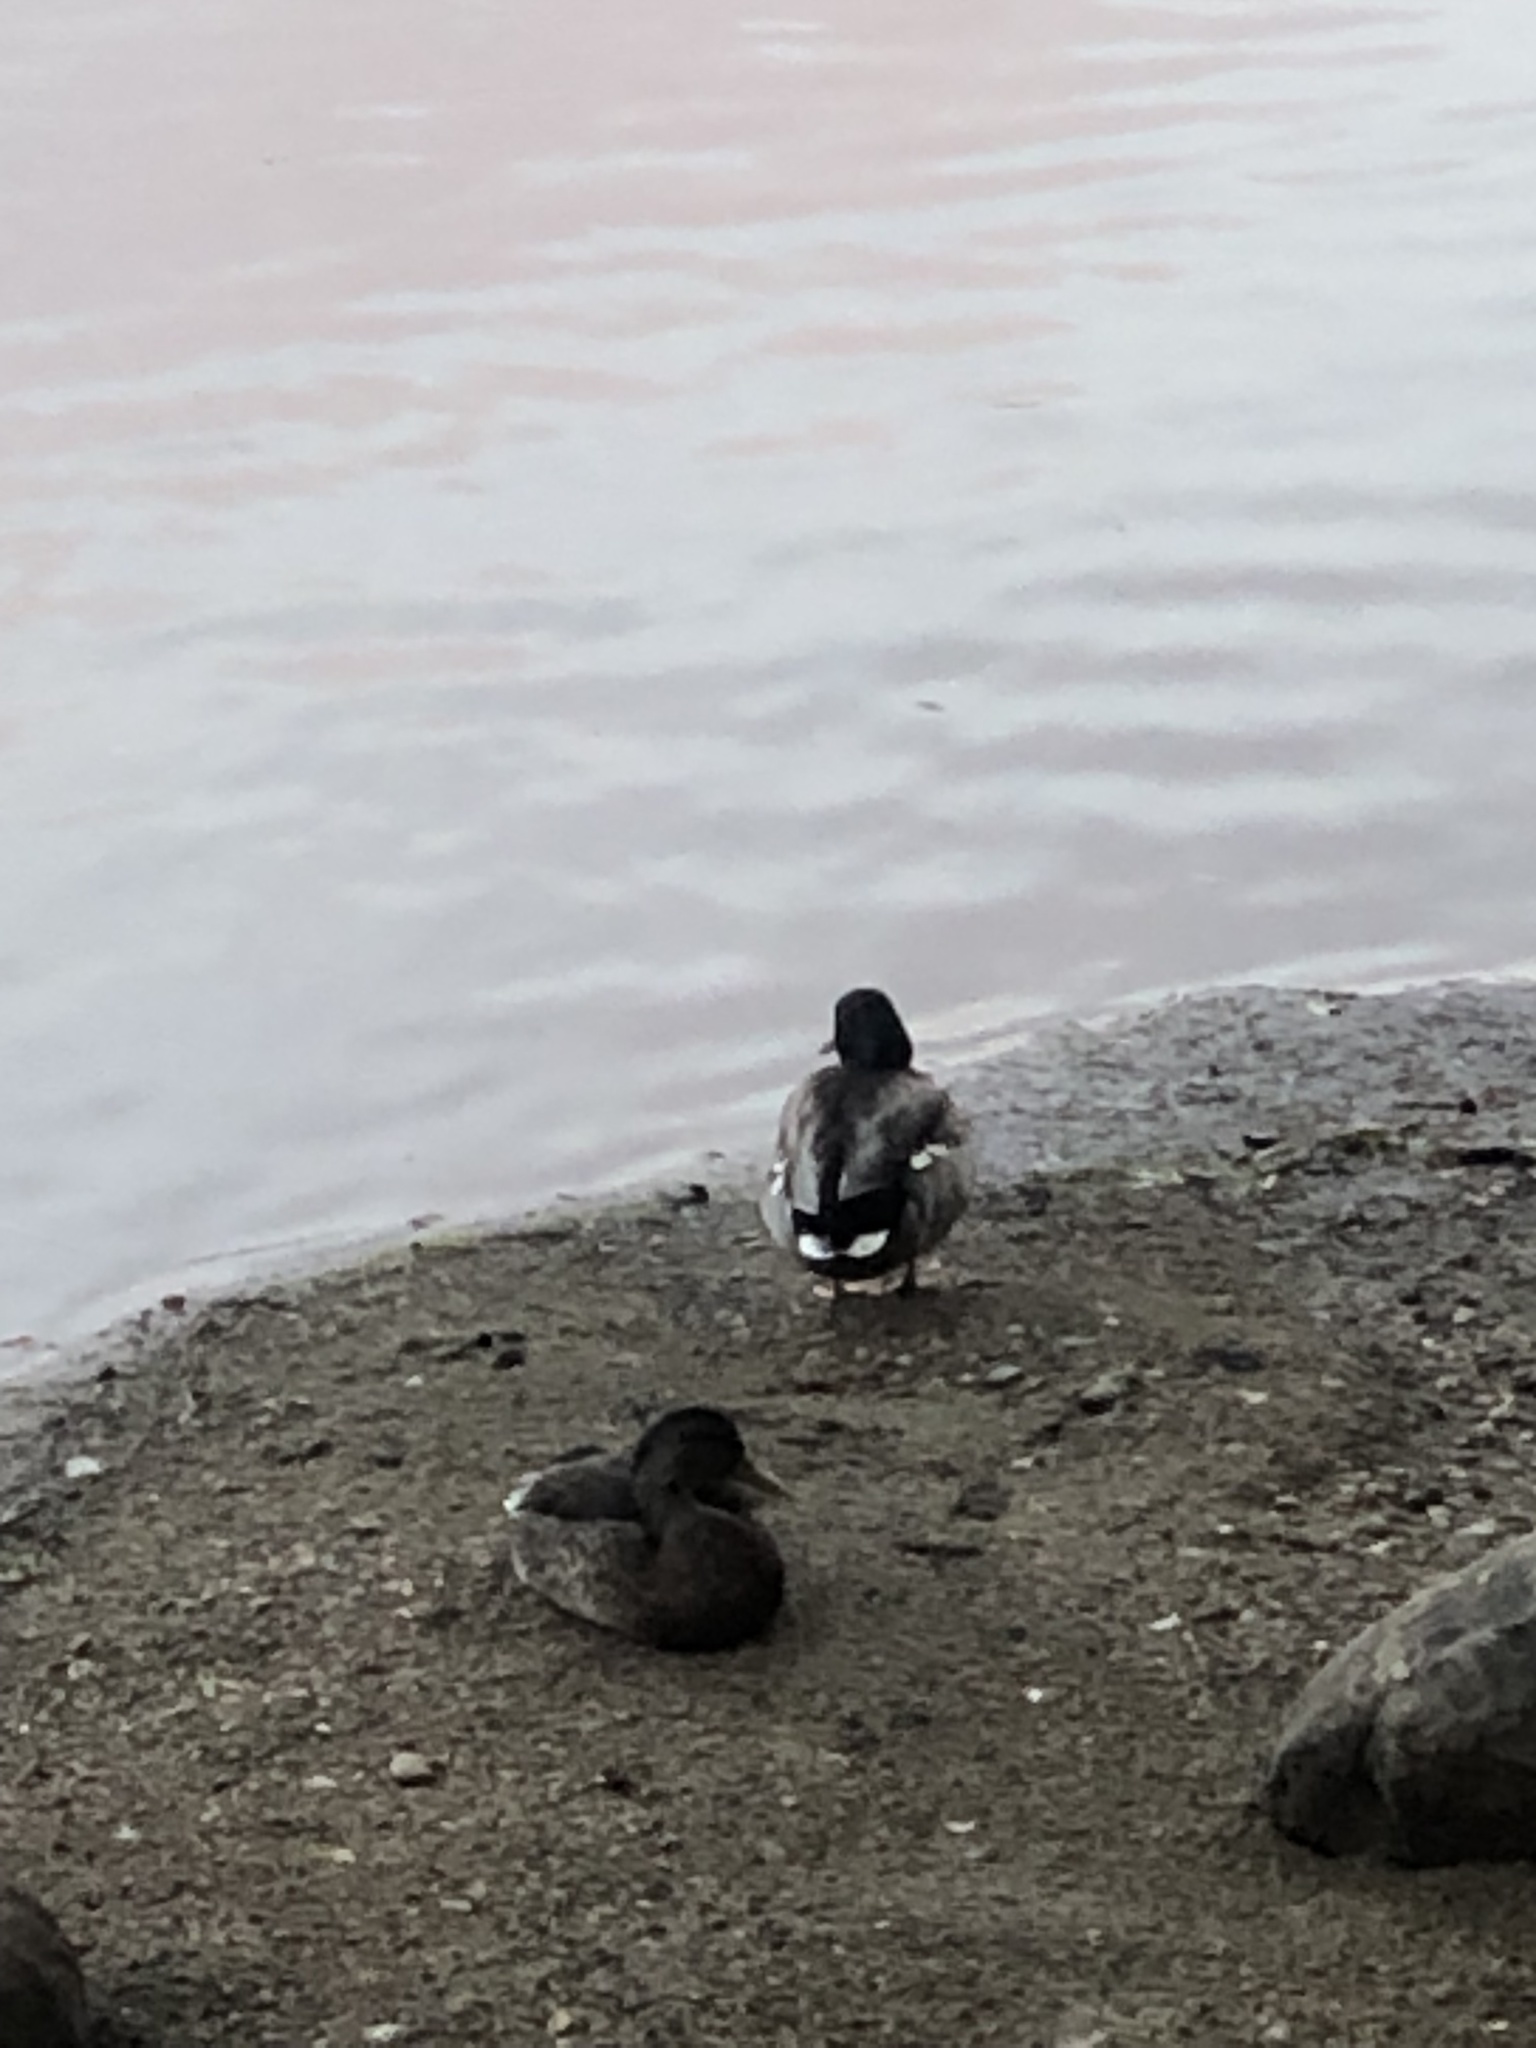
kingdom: Animalia
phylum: Chordata
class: Aves
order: Anseriformes
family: Anatidae
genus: Anas
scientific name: Anas platyrhynchos
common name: Mallard
